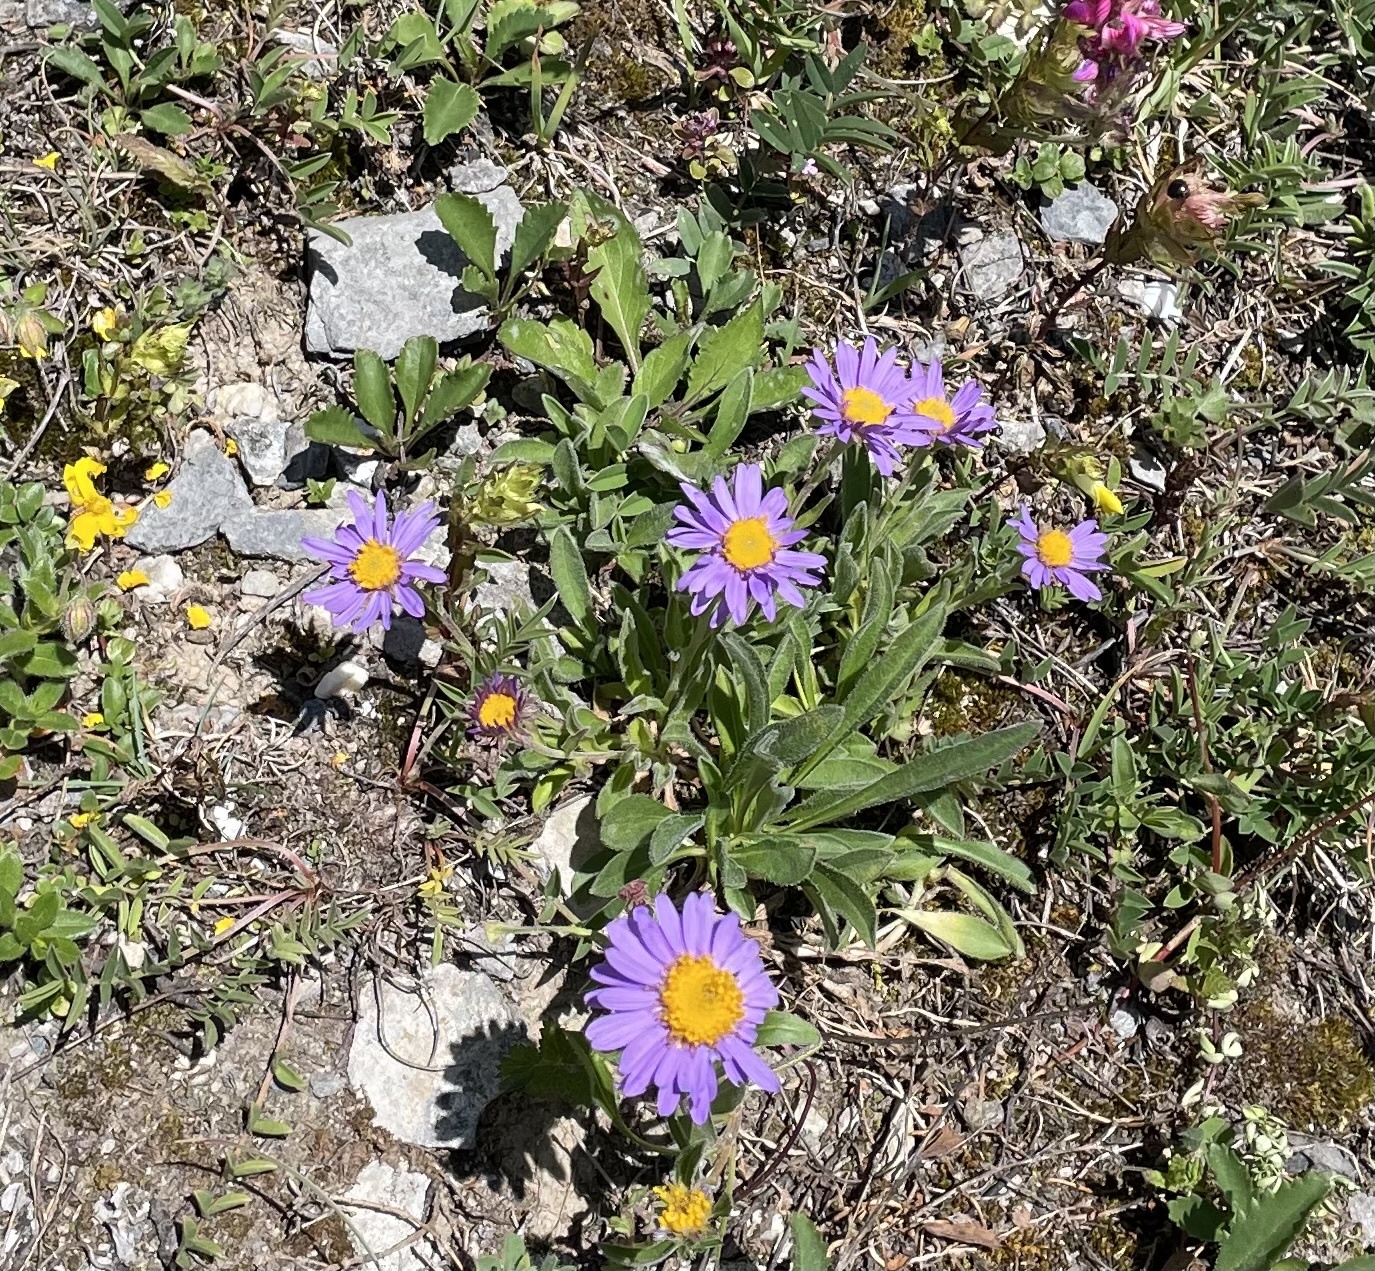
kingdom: Plantae
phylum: Tracheophyta
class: Magnoliopsida
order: Asterales
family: Asteraceae
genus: Aster
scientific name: Aster alpinus
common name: Alpine aster
